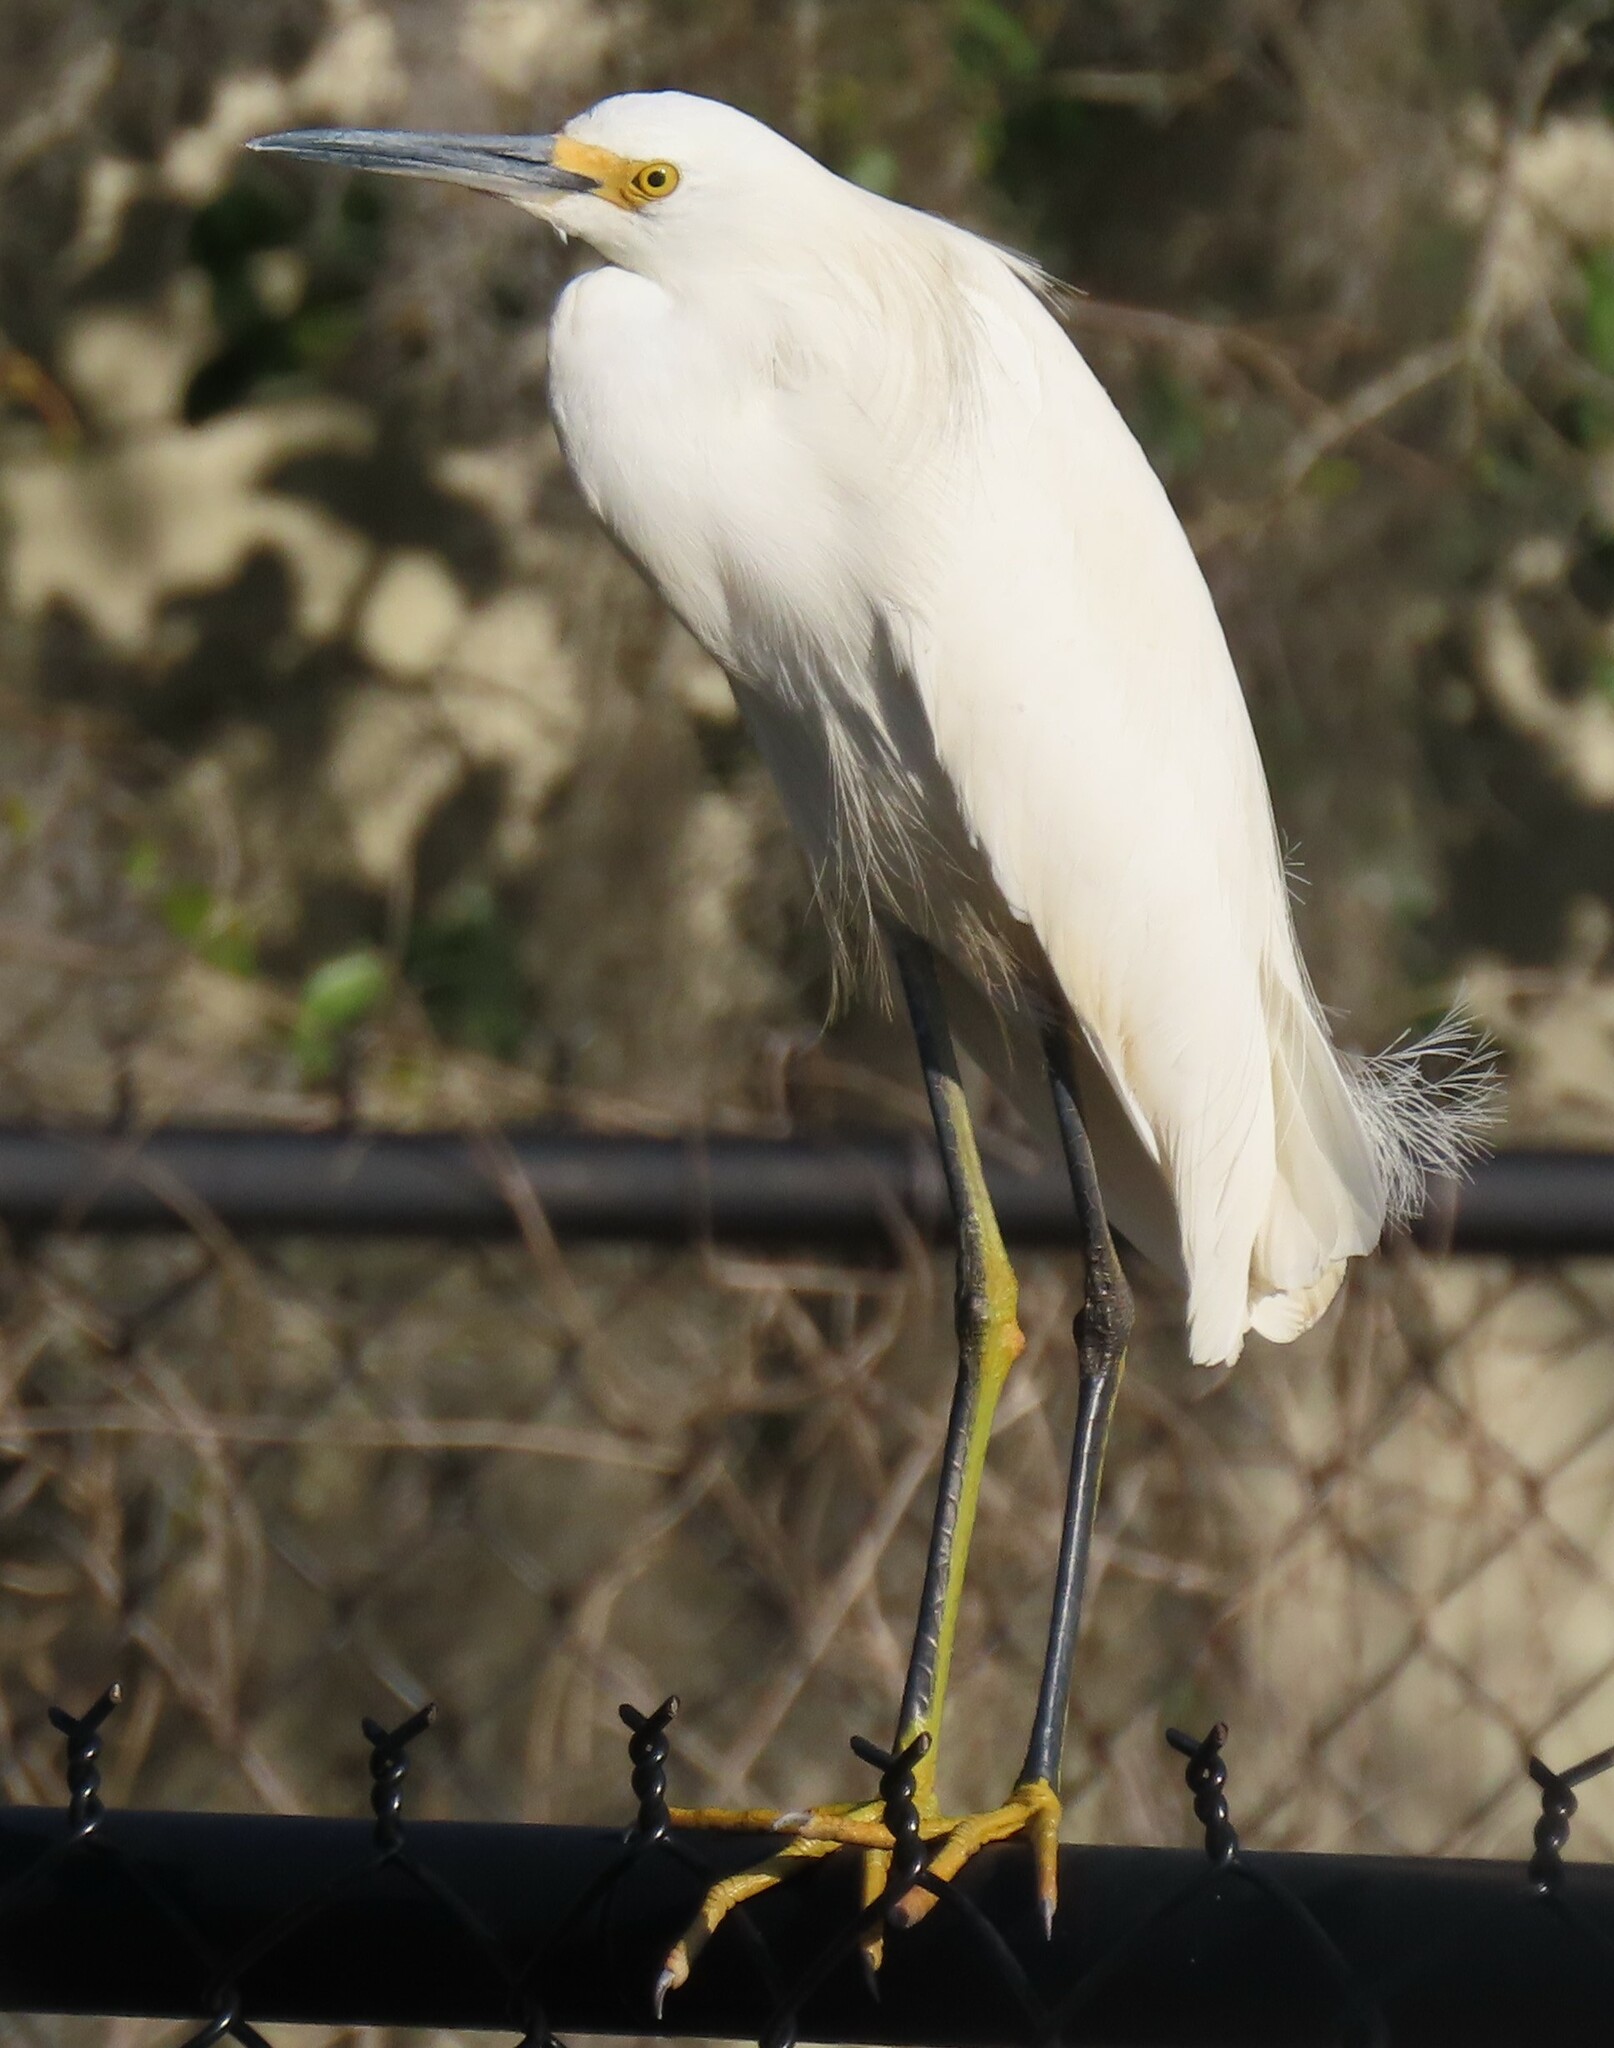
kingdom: Animalia
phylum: Chordata
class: Aves
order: Pelecaniformes
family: Ardeidae
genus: Egretta
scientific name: Egretta thula
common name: Snowy egret
